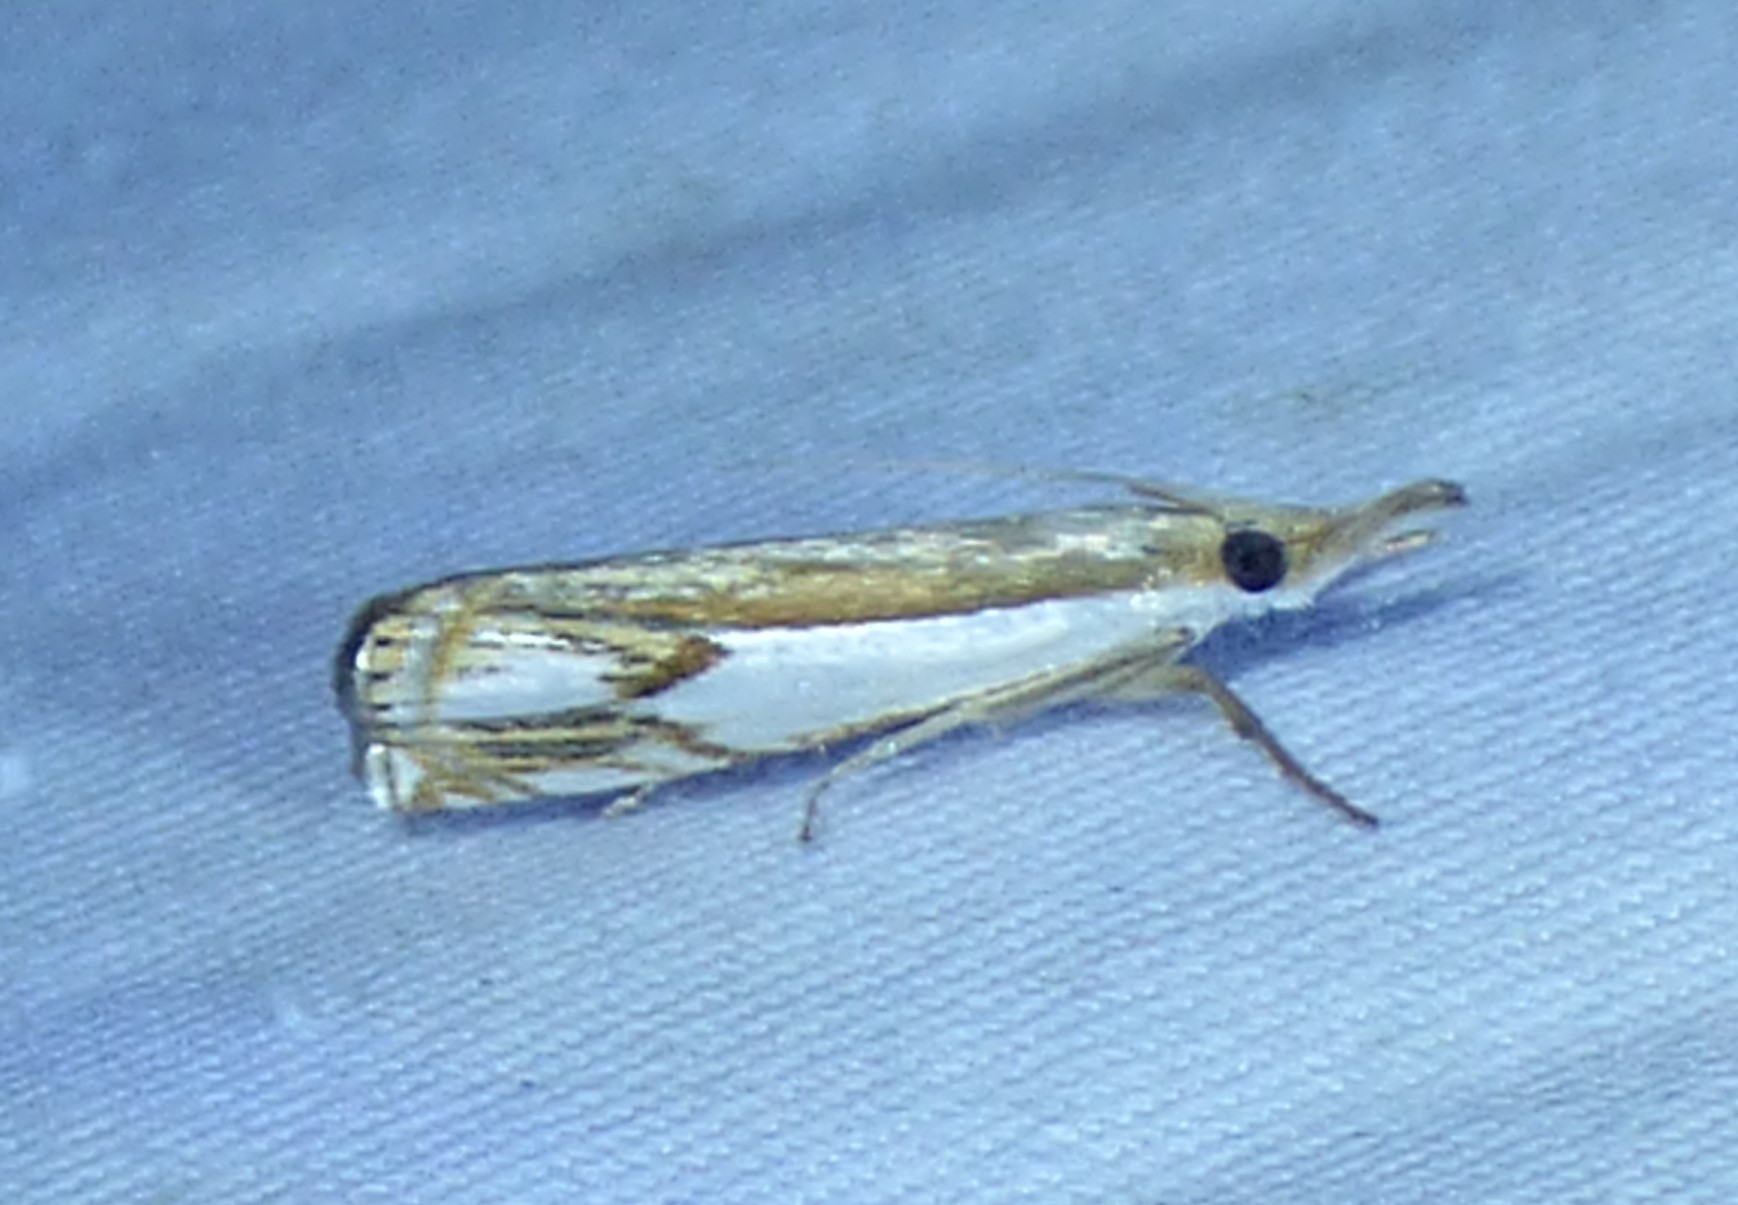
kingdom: Animalia
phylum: Arthropoda
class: Insecta
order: Lepidoptera
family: Crambidae
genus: Crambus
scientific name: Crambus agitatellus
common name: Double-banded grass-veneer
